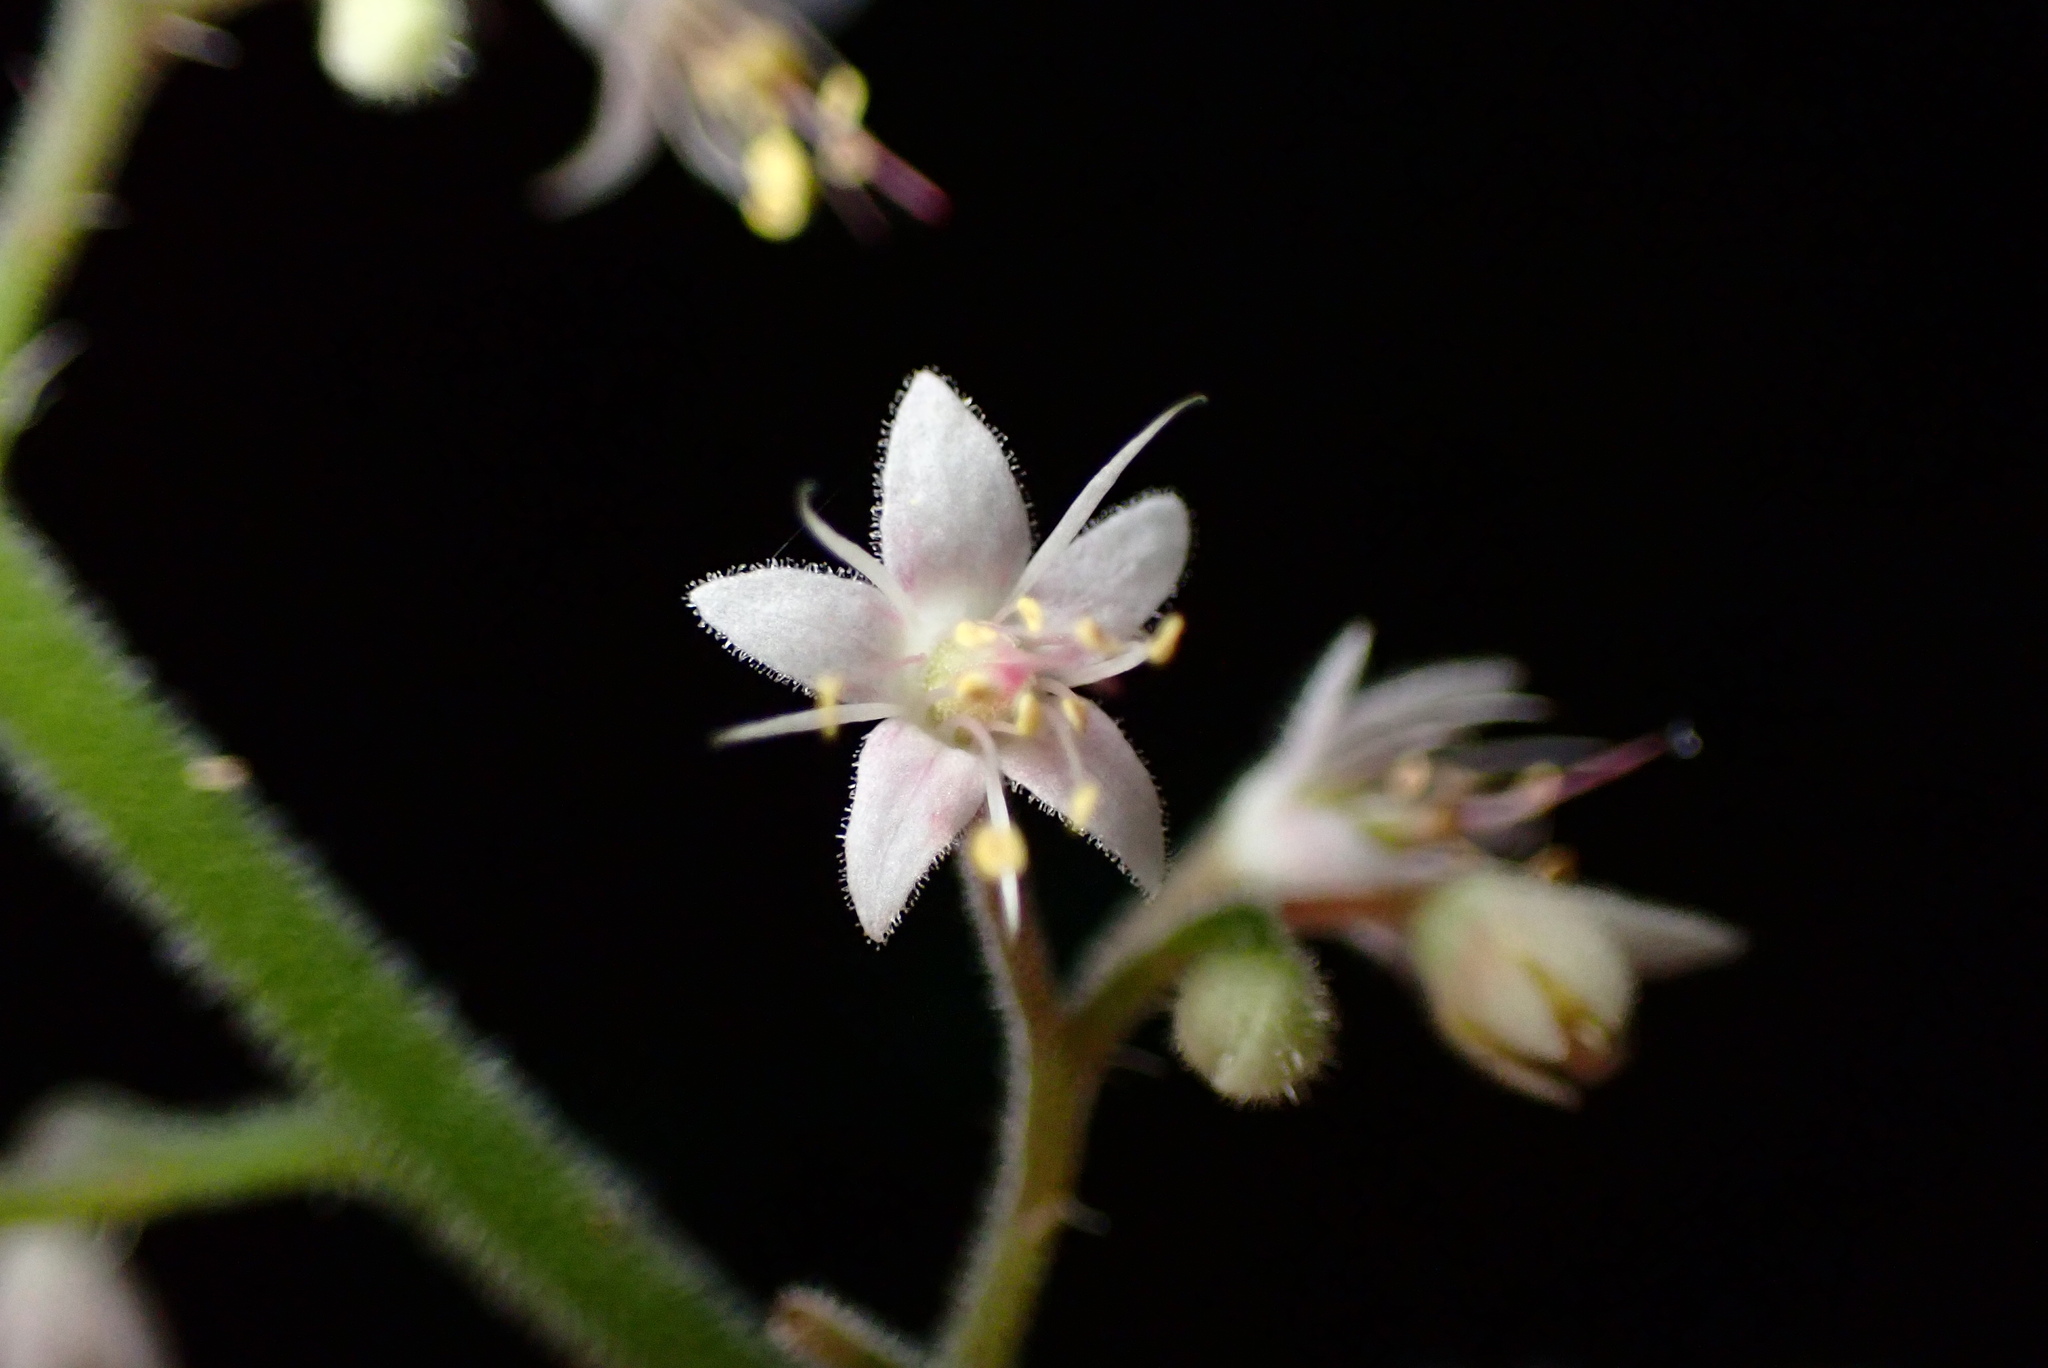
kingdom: Plantae
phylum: Tracheophyta
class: Magnoliopsida
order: Saxifragales
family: Saxifragaceae
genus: Tiarella
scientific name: Tiarella trifoliata
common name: Sugar-scoop
